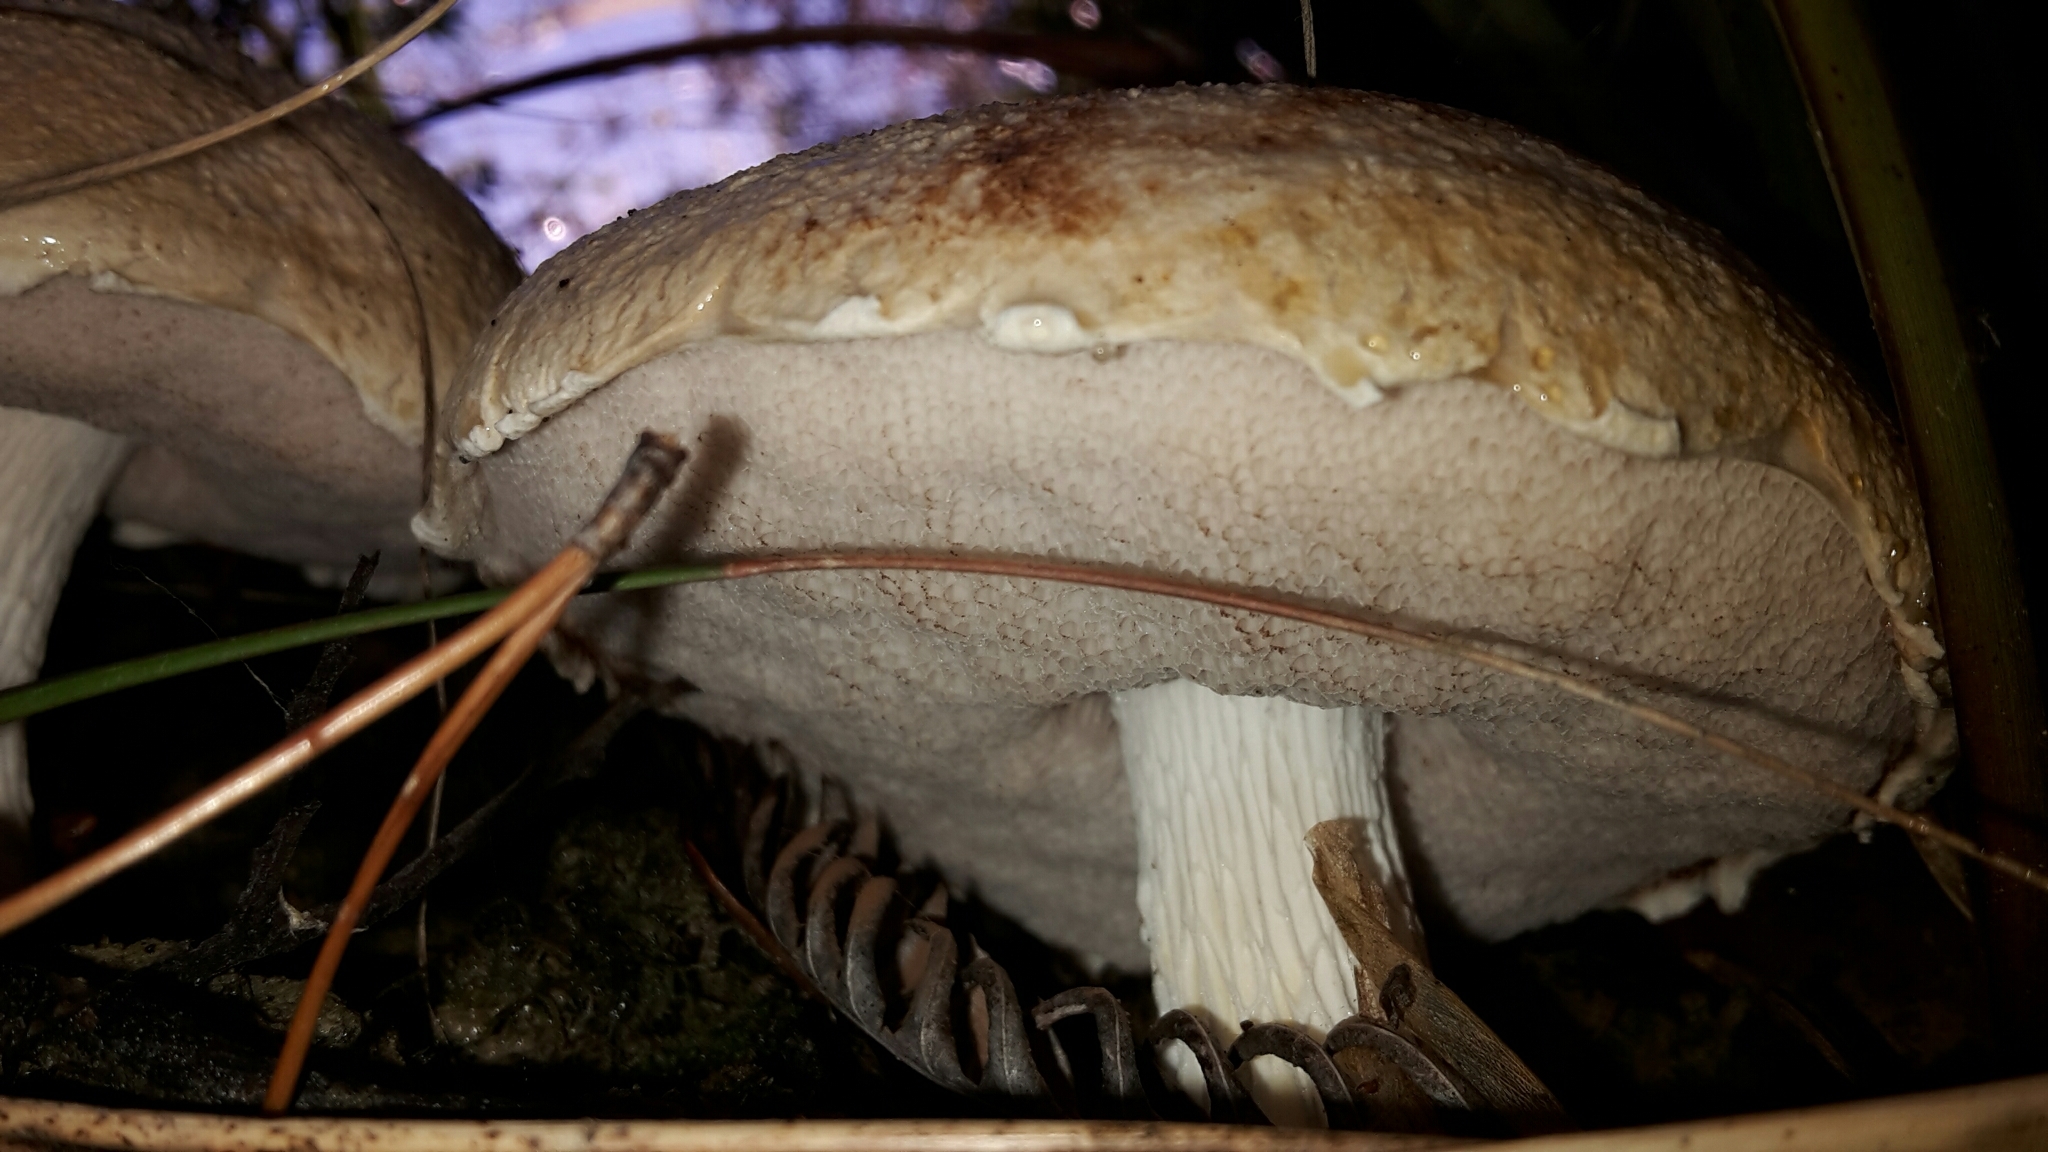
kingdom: Fungi
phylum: Basidiomycota
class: Agaricomycetes
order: Boletales
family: Boletaceae
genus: Fistulinella
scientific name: Fistulinella nivea
